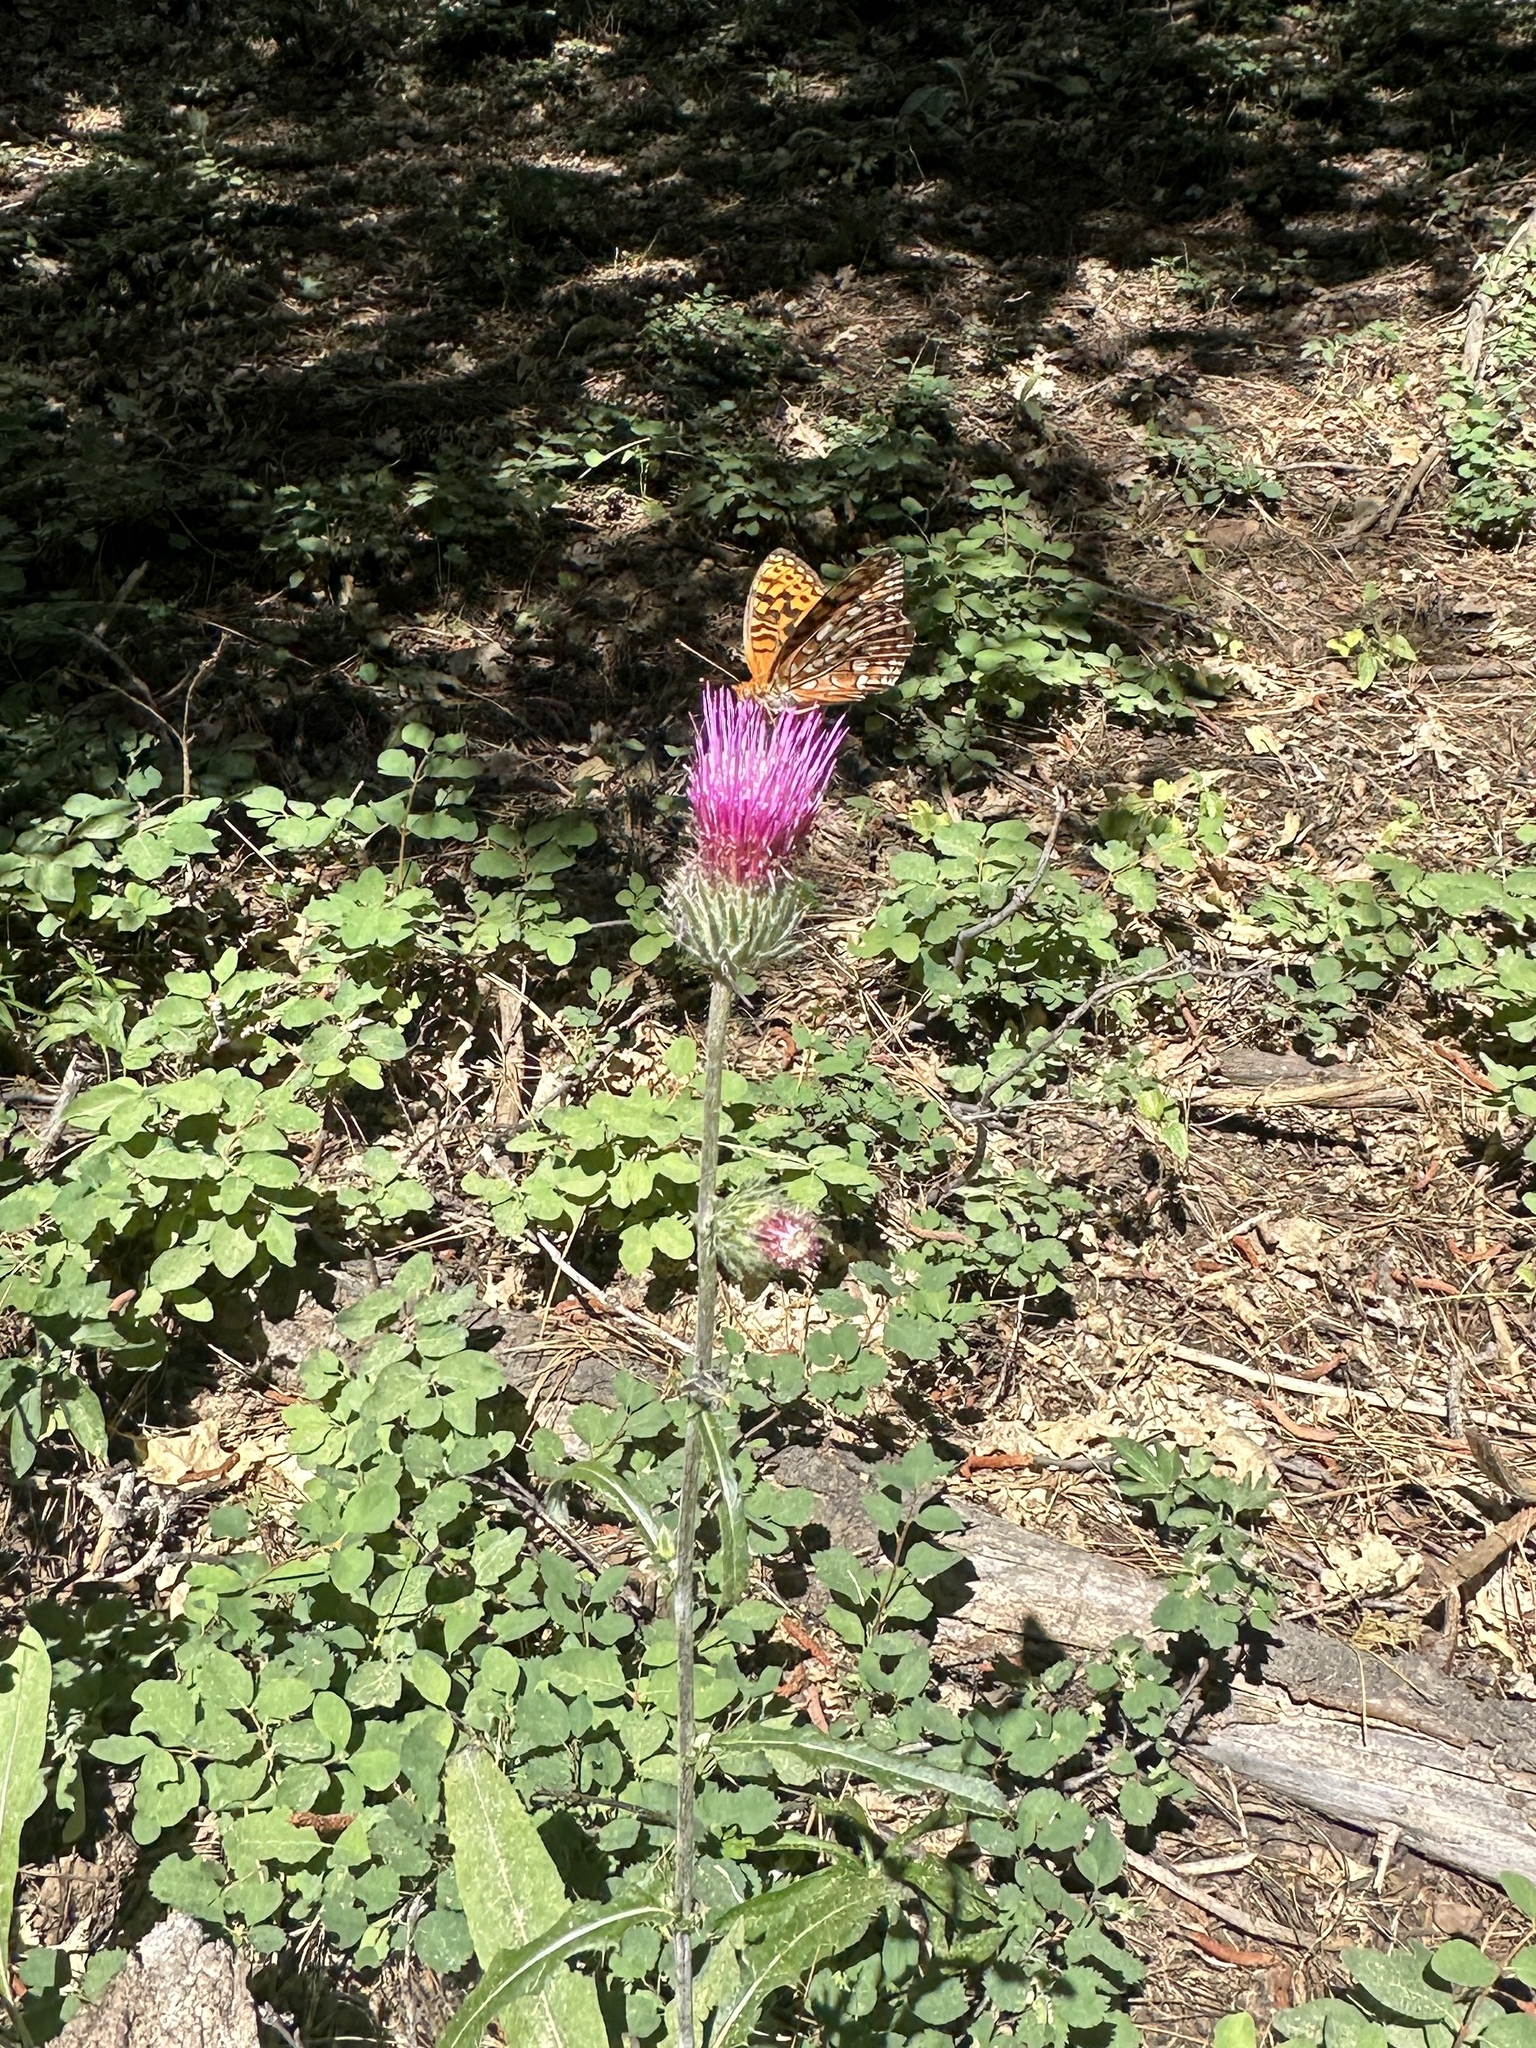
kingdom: Plantae
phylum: Tracheophyta
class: Magnoliopsida
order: Asterales
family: Asteraceae
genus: Cirsium
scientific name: Cirsium andersonii
